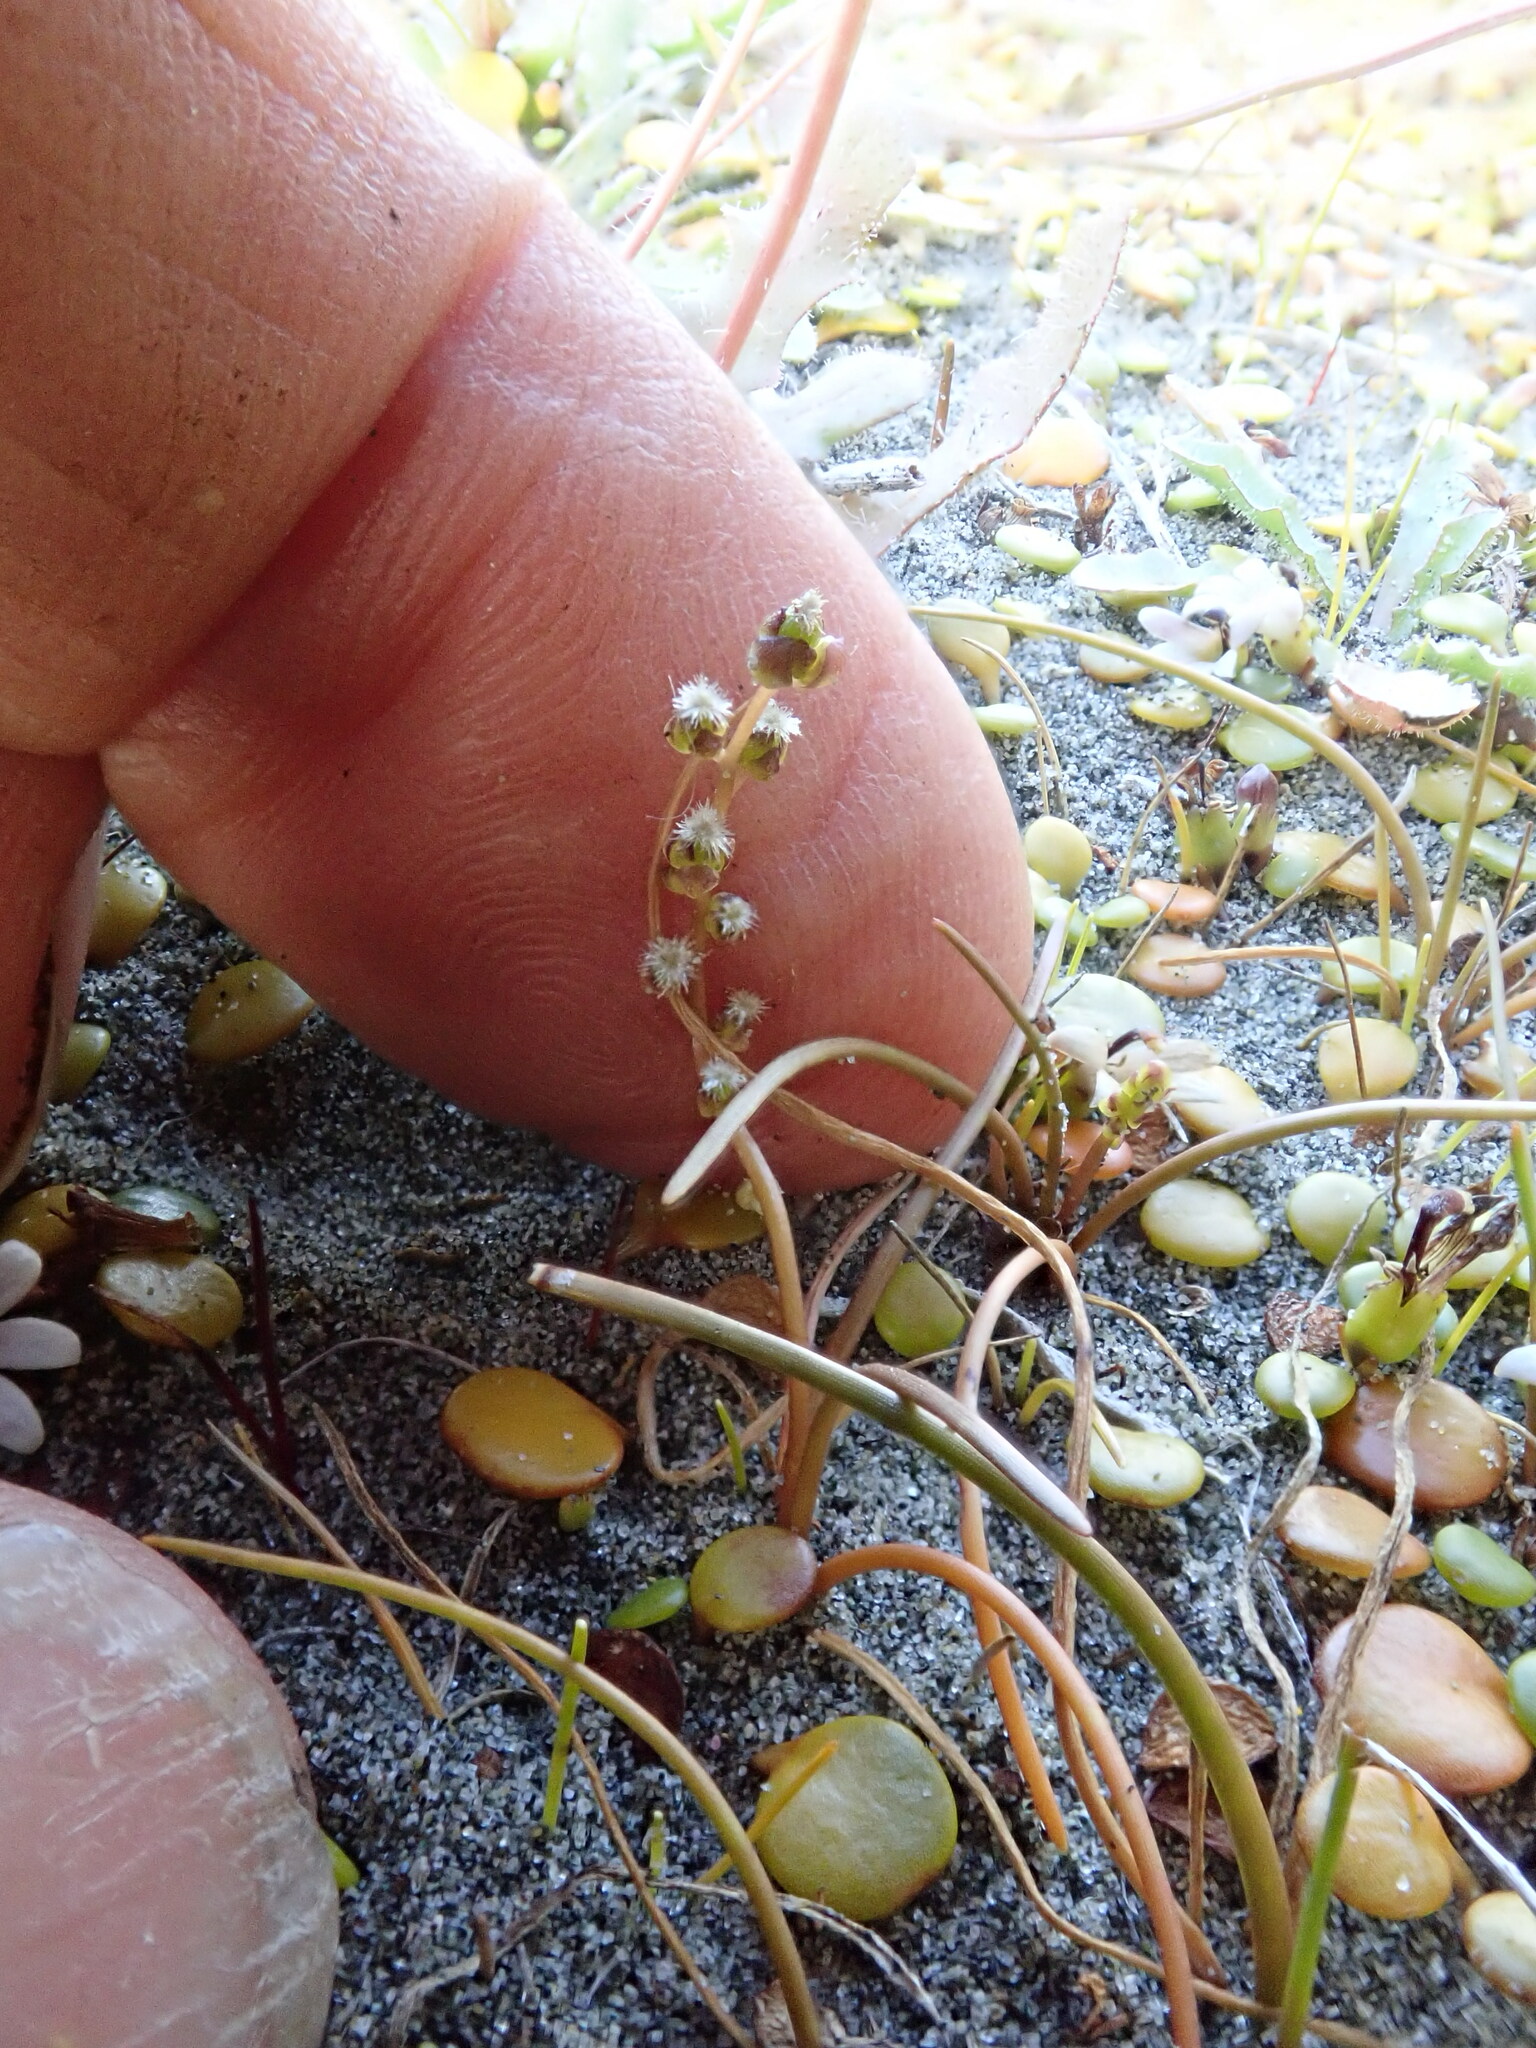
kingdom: Plantae
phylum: Tracheophyta
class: Liliopsida
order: Alismatales
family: Juncaginaceae
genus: Triglochin
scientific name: Triglochin striata
